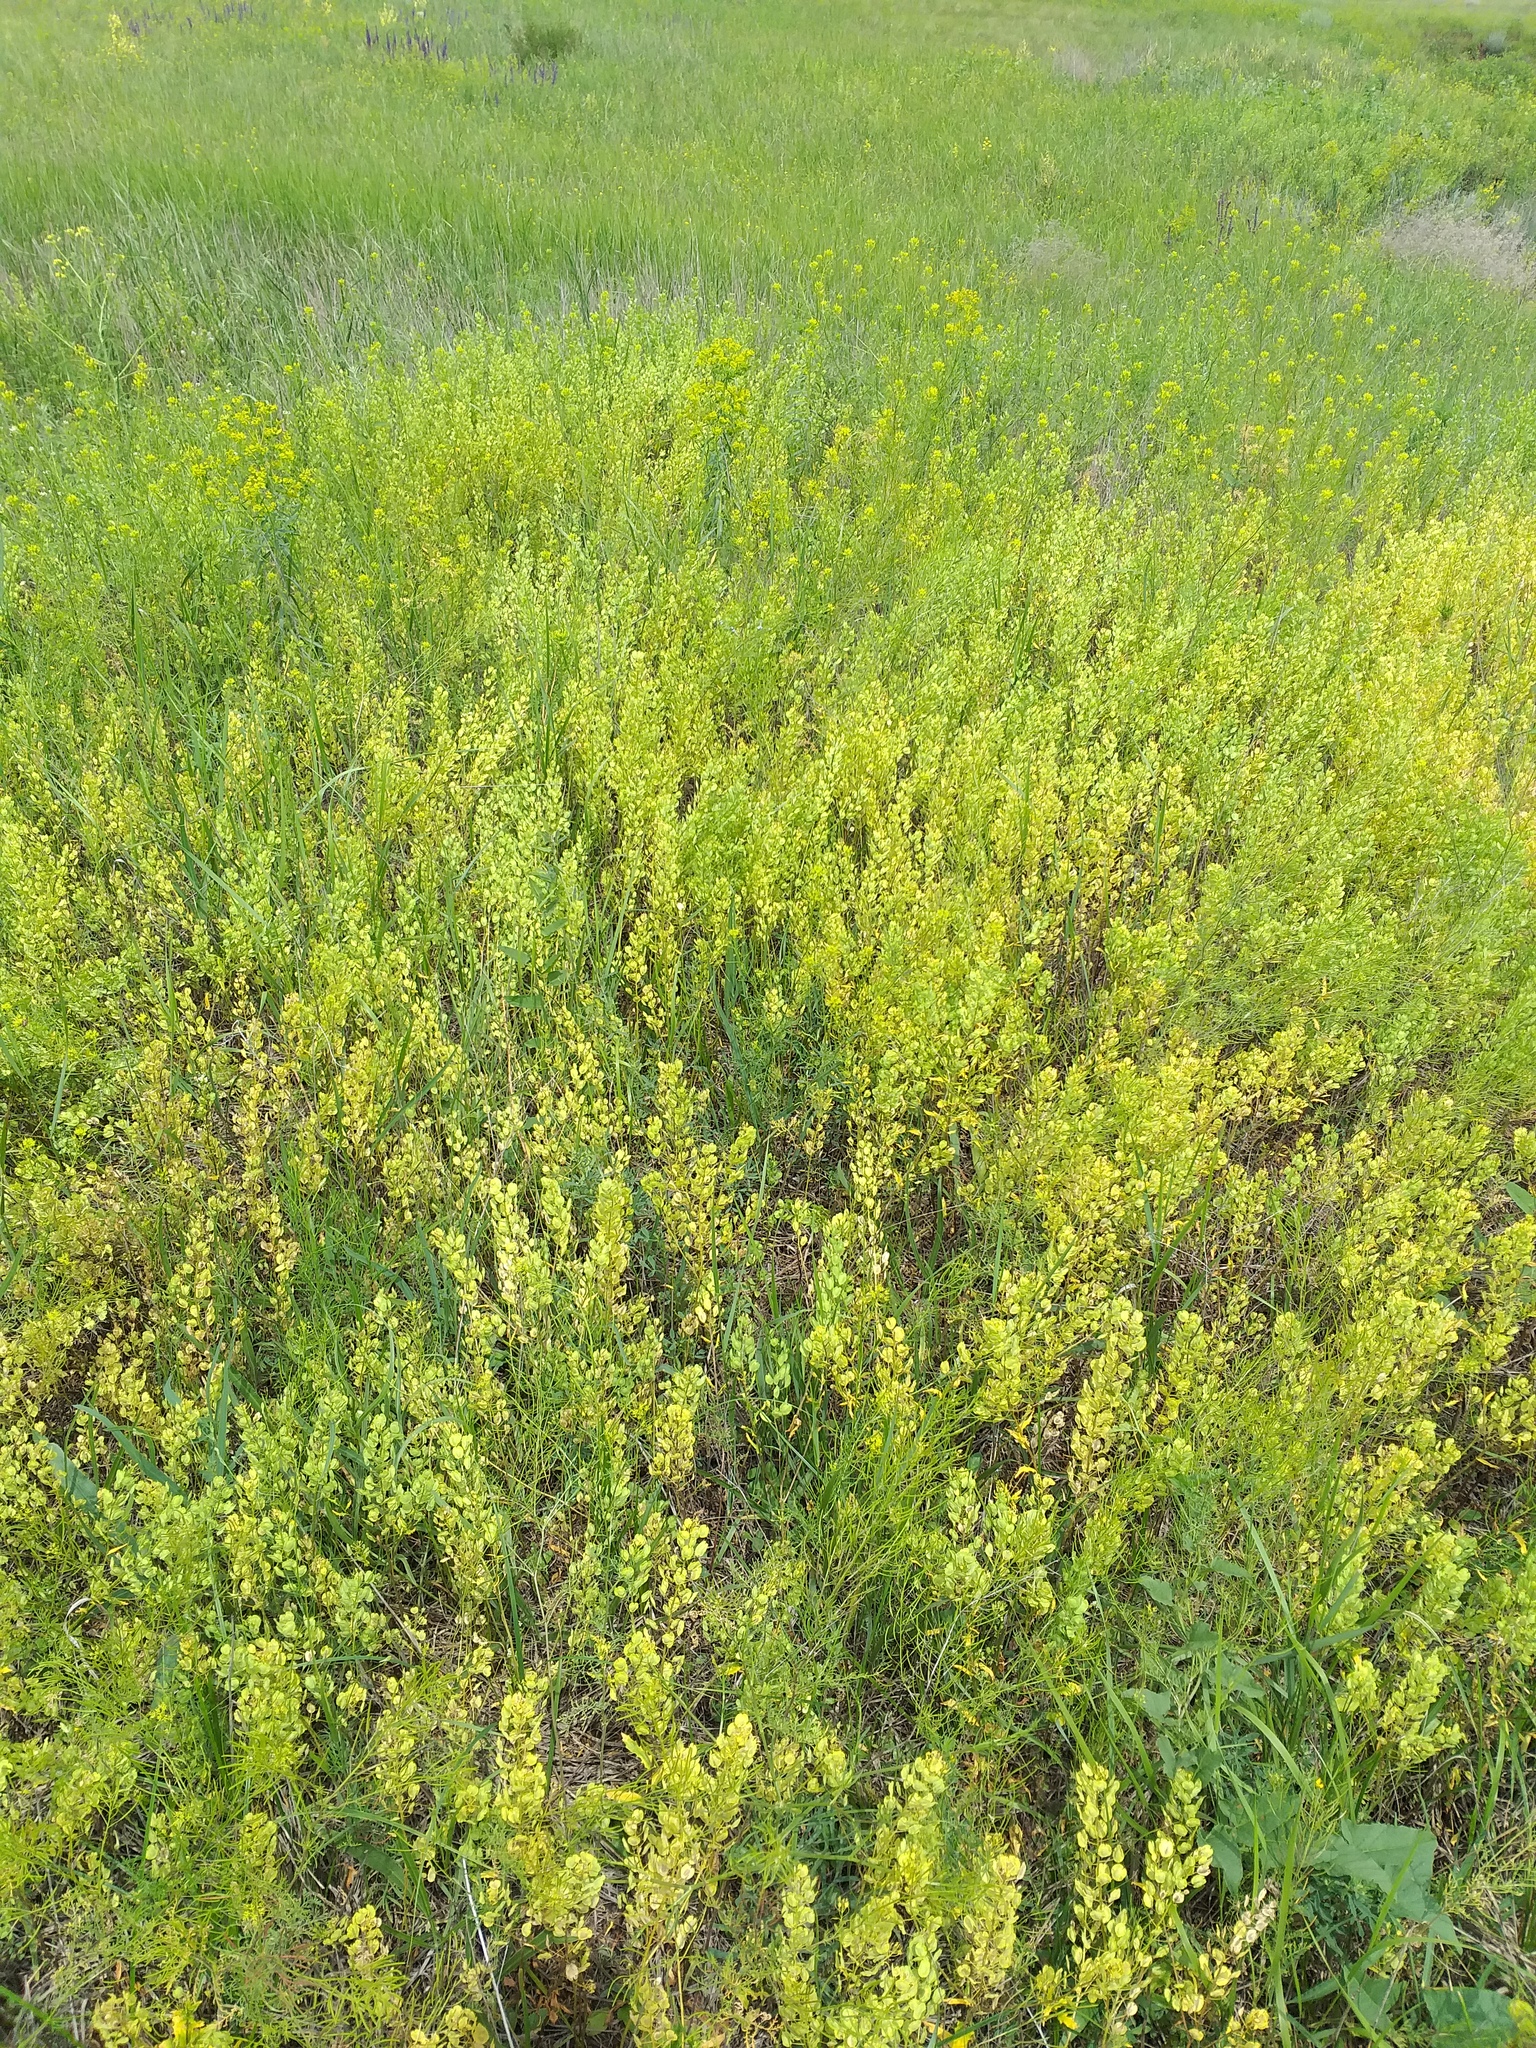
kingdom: Plantae
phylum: Tracheophyta
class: Magnoliopsida
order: Brassicales
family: Brassicaceae
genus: Thlaspi
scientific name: Thlaspi arvense
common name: Field pennycress
